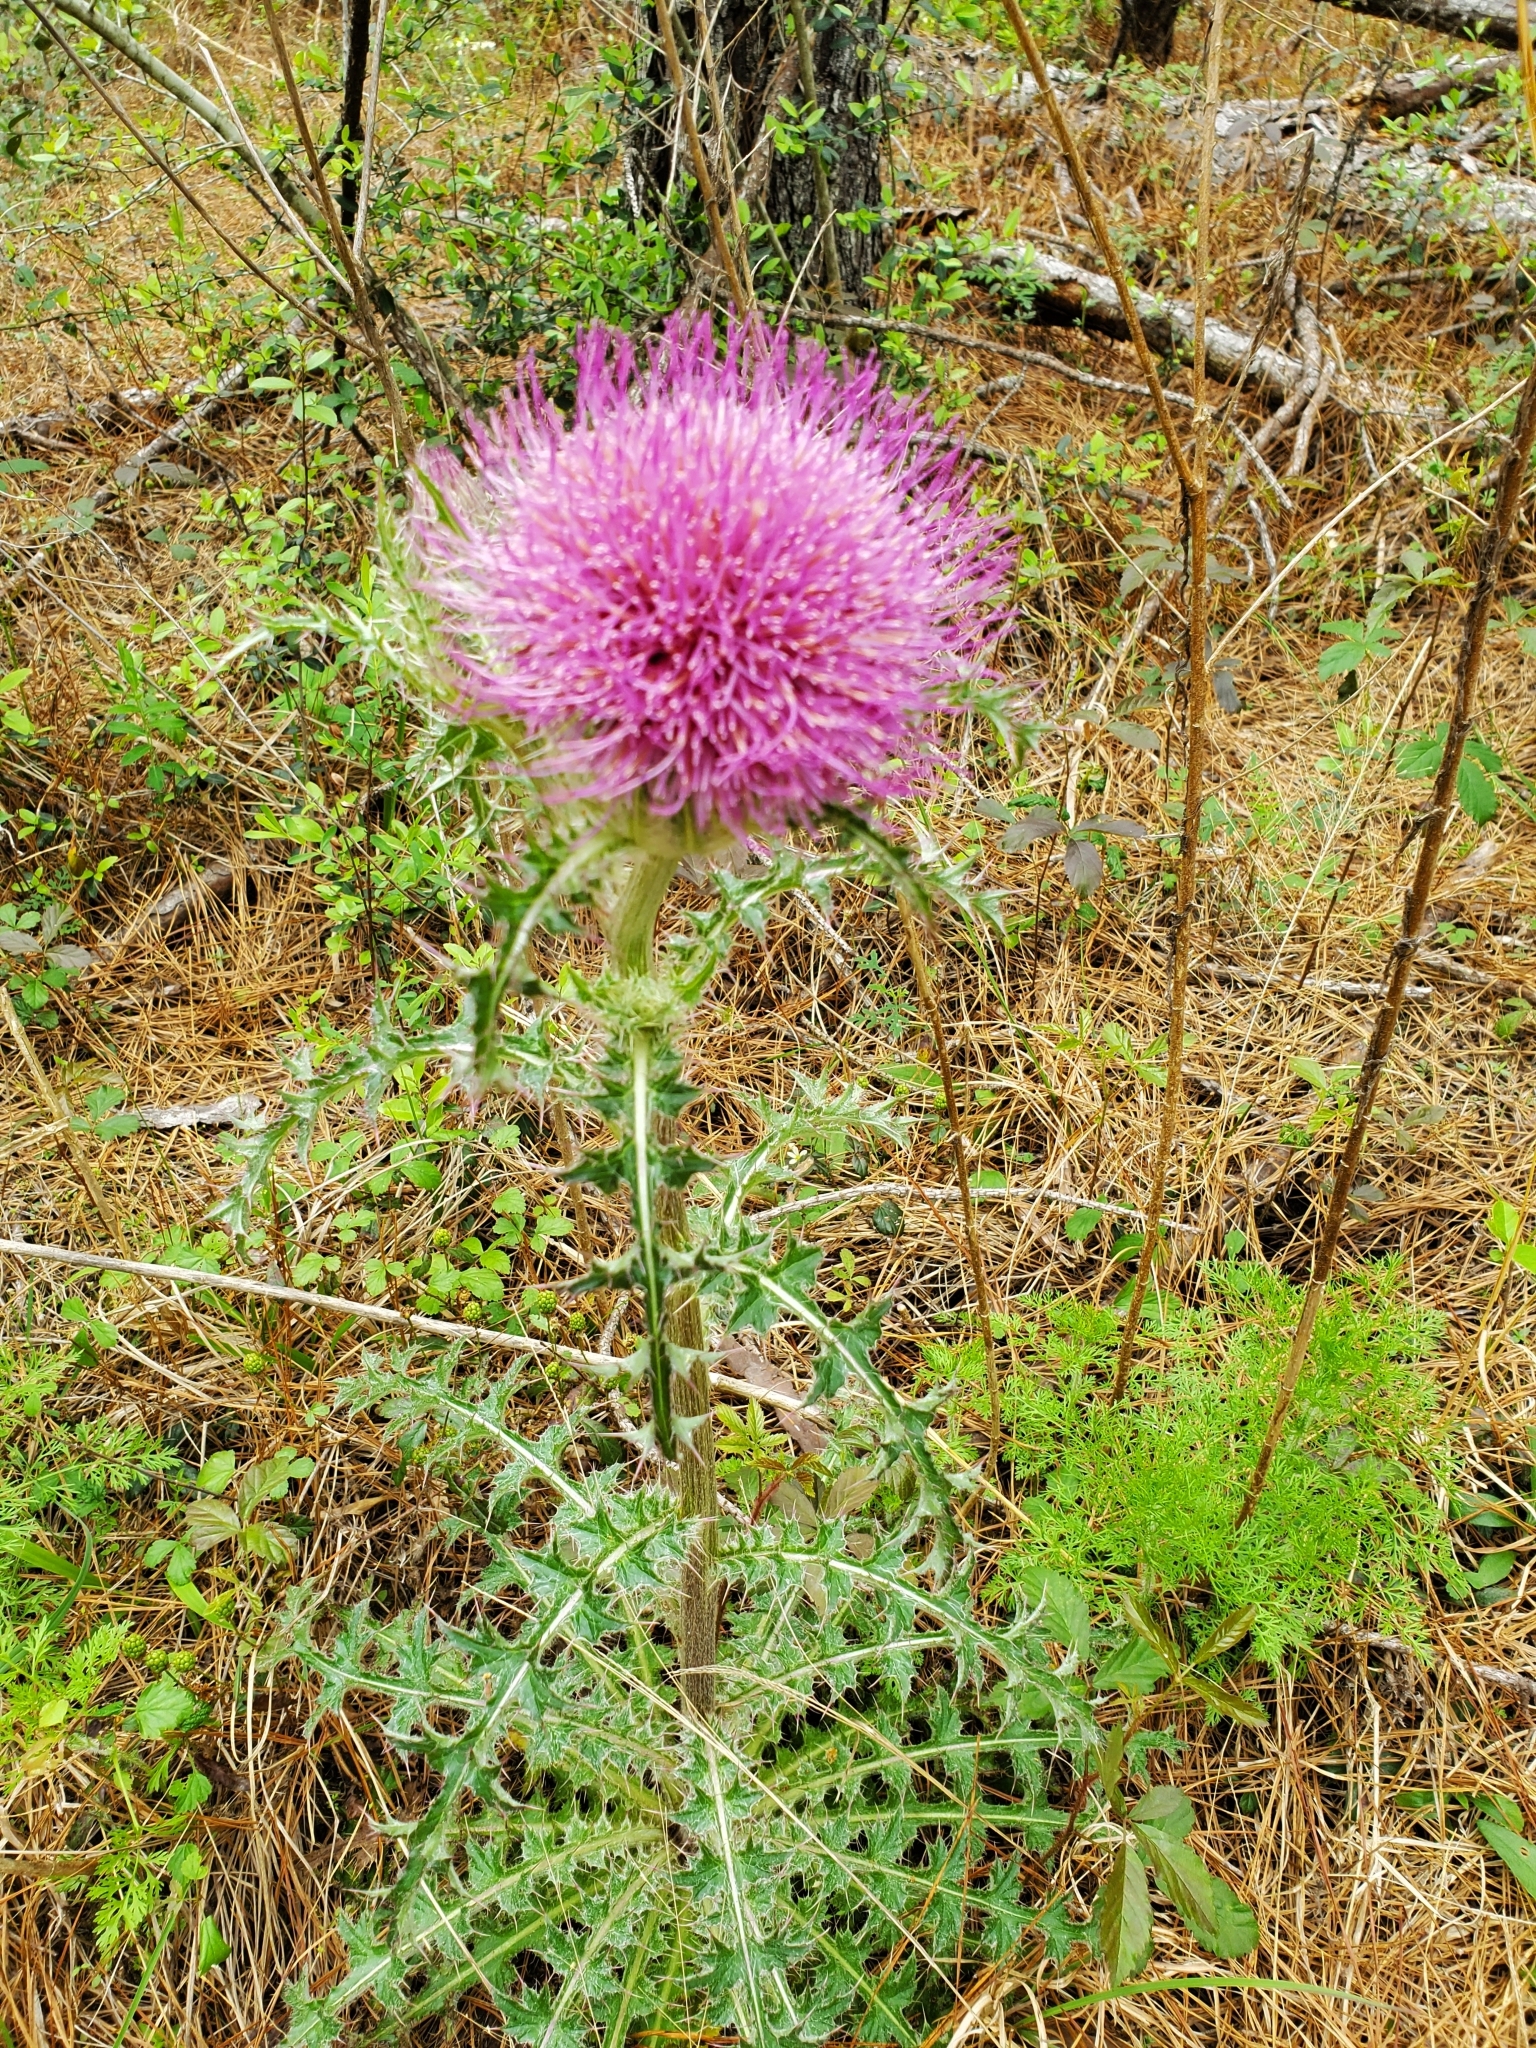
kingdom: Plantae
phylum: Tracheophyta
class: Magnoliopsida
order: Asterales
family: Asteraceae
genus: Cirsium
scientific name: Cirsium horridulum
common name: Bristly thistle
